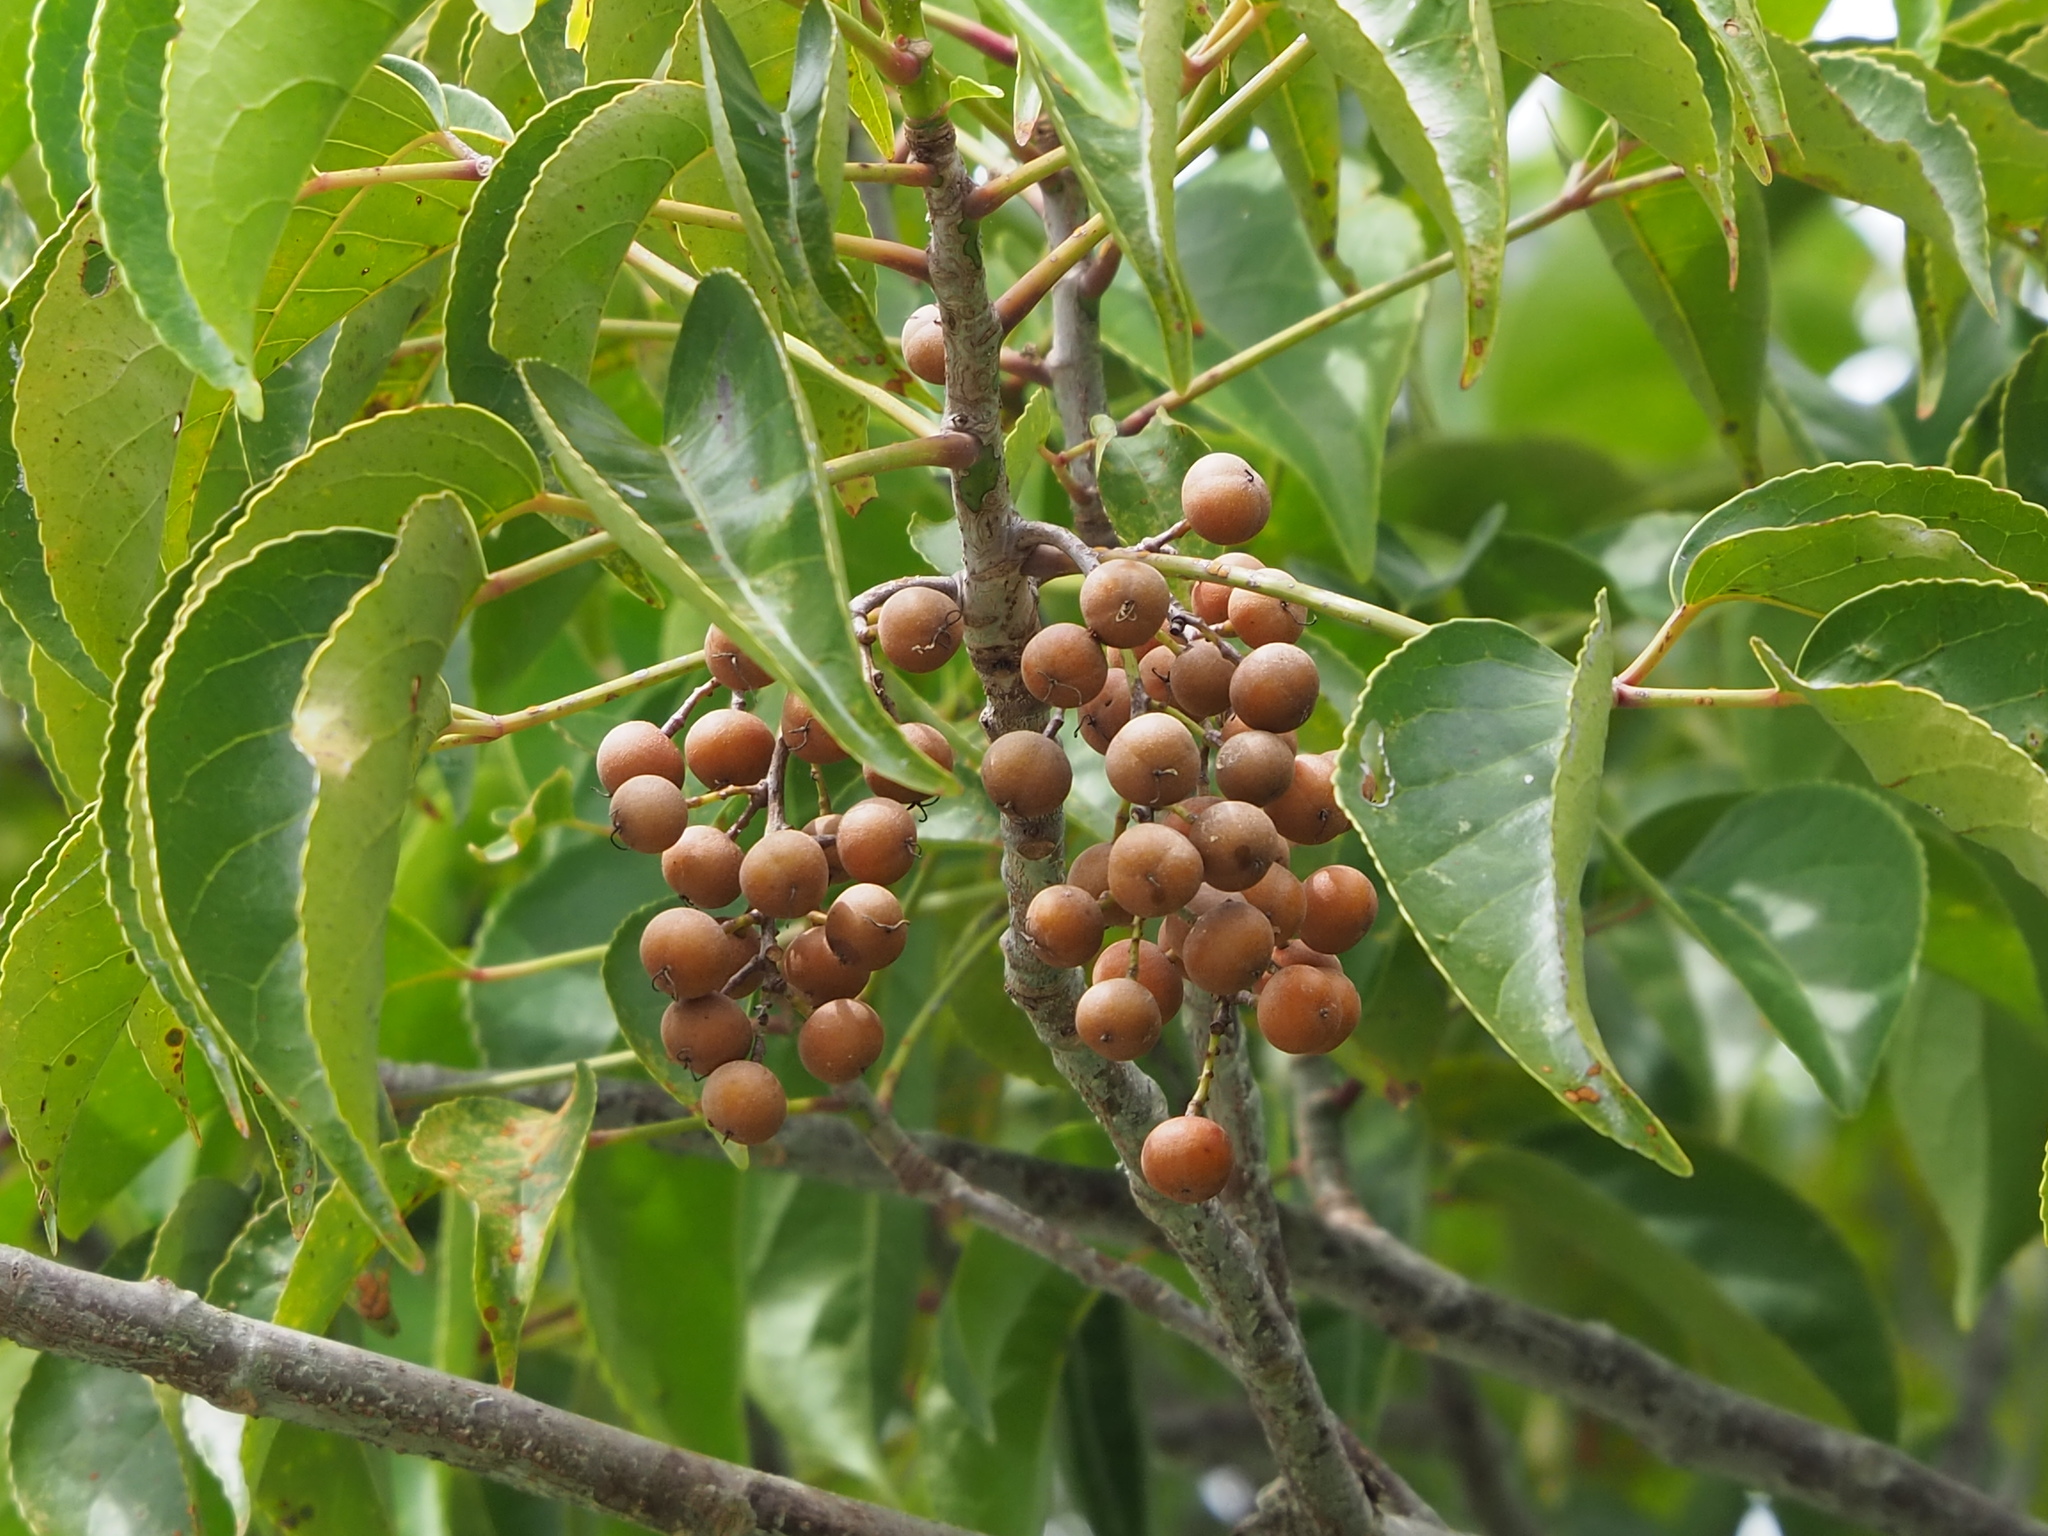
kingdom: Plantae
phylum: Tracheophyta
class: Magnoliopsida
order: Malpighiales
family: Phyllanthaceae
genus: Bischofia
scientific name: Bischofia javanica
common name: Javanese bishopwood
